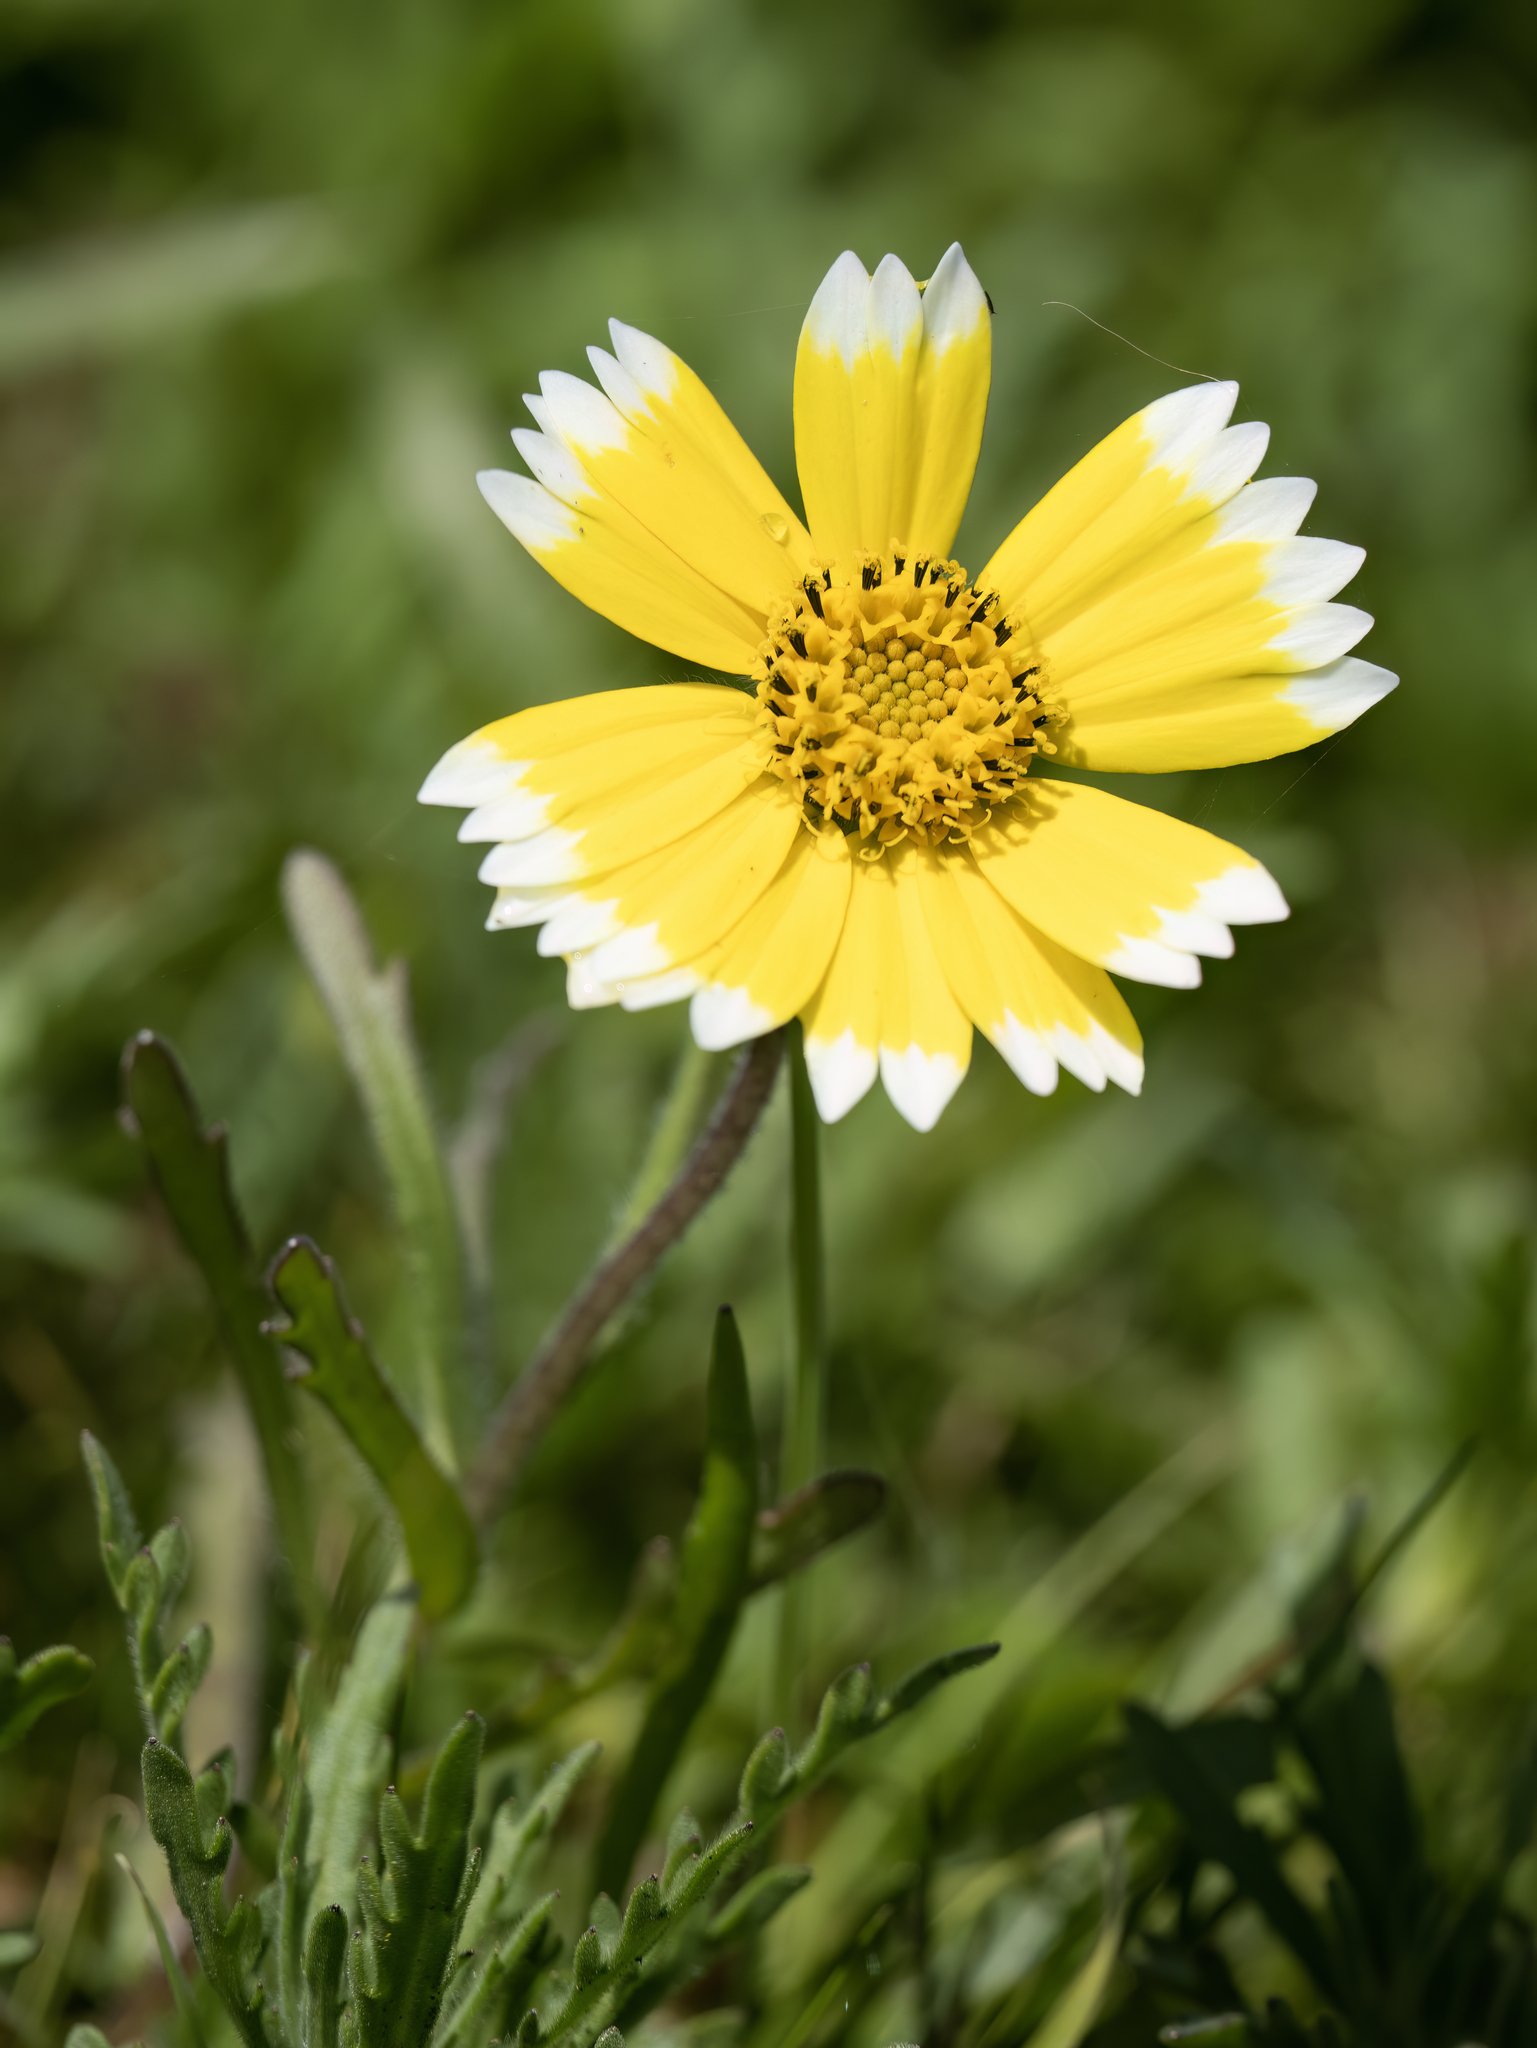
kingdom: Plantae
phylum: Tracheophyta
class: Magnoliopsida
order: Asterales
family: Asteraceae
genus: Layia
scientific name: Layia platyglossa
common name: Tidy-tips
